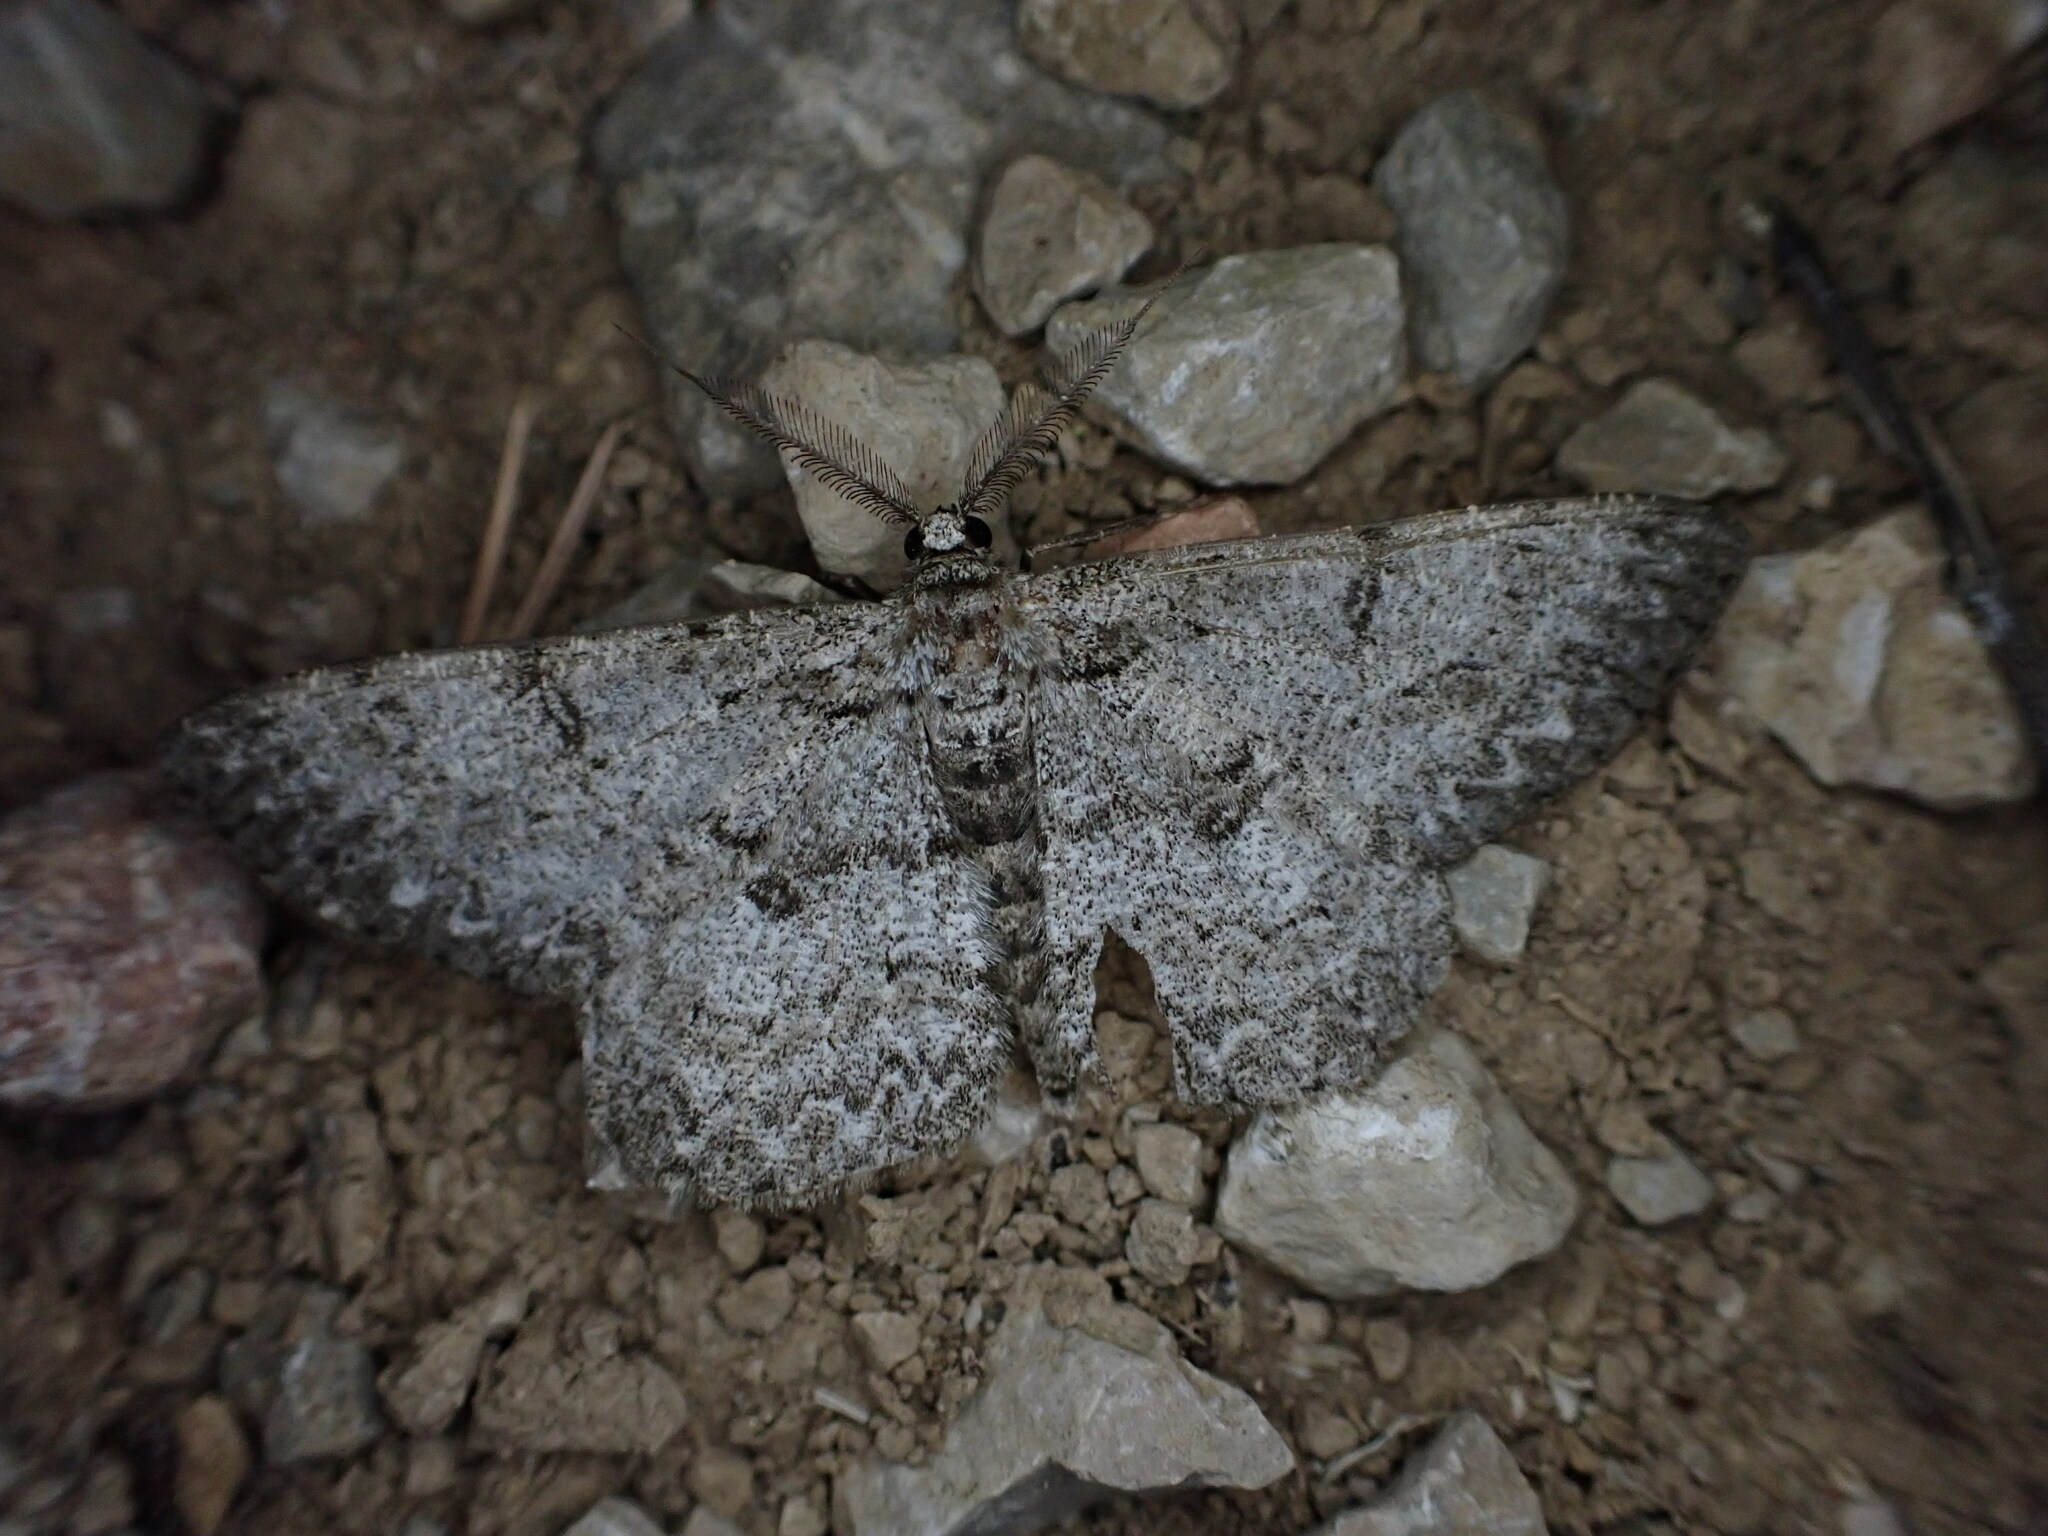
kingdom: Animalia
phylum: Arthropoda
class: Insecta
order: Lepidoptera
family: Geometridae
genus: Hypomecis
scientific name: Hypomecis punctinalis
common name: Pale oak beauty
